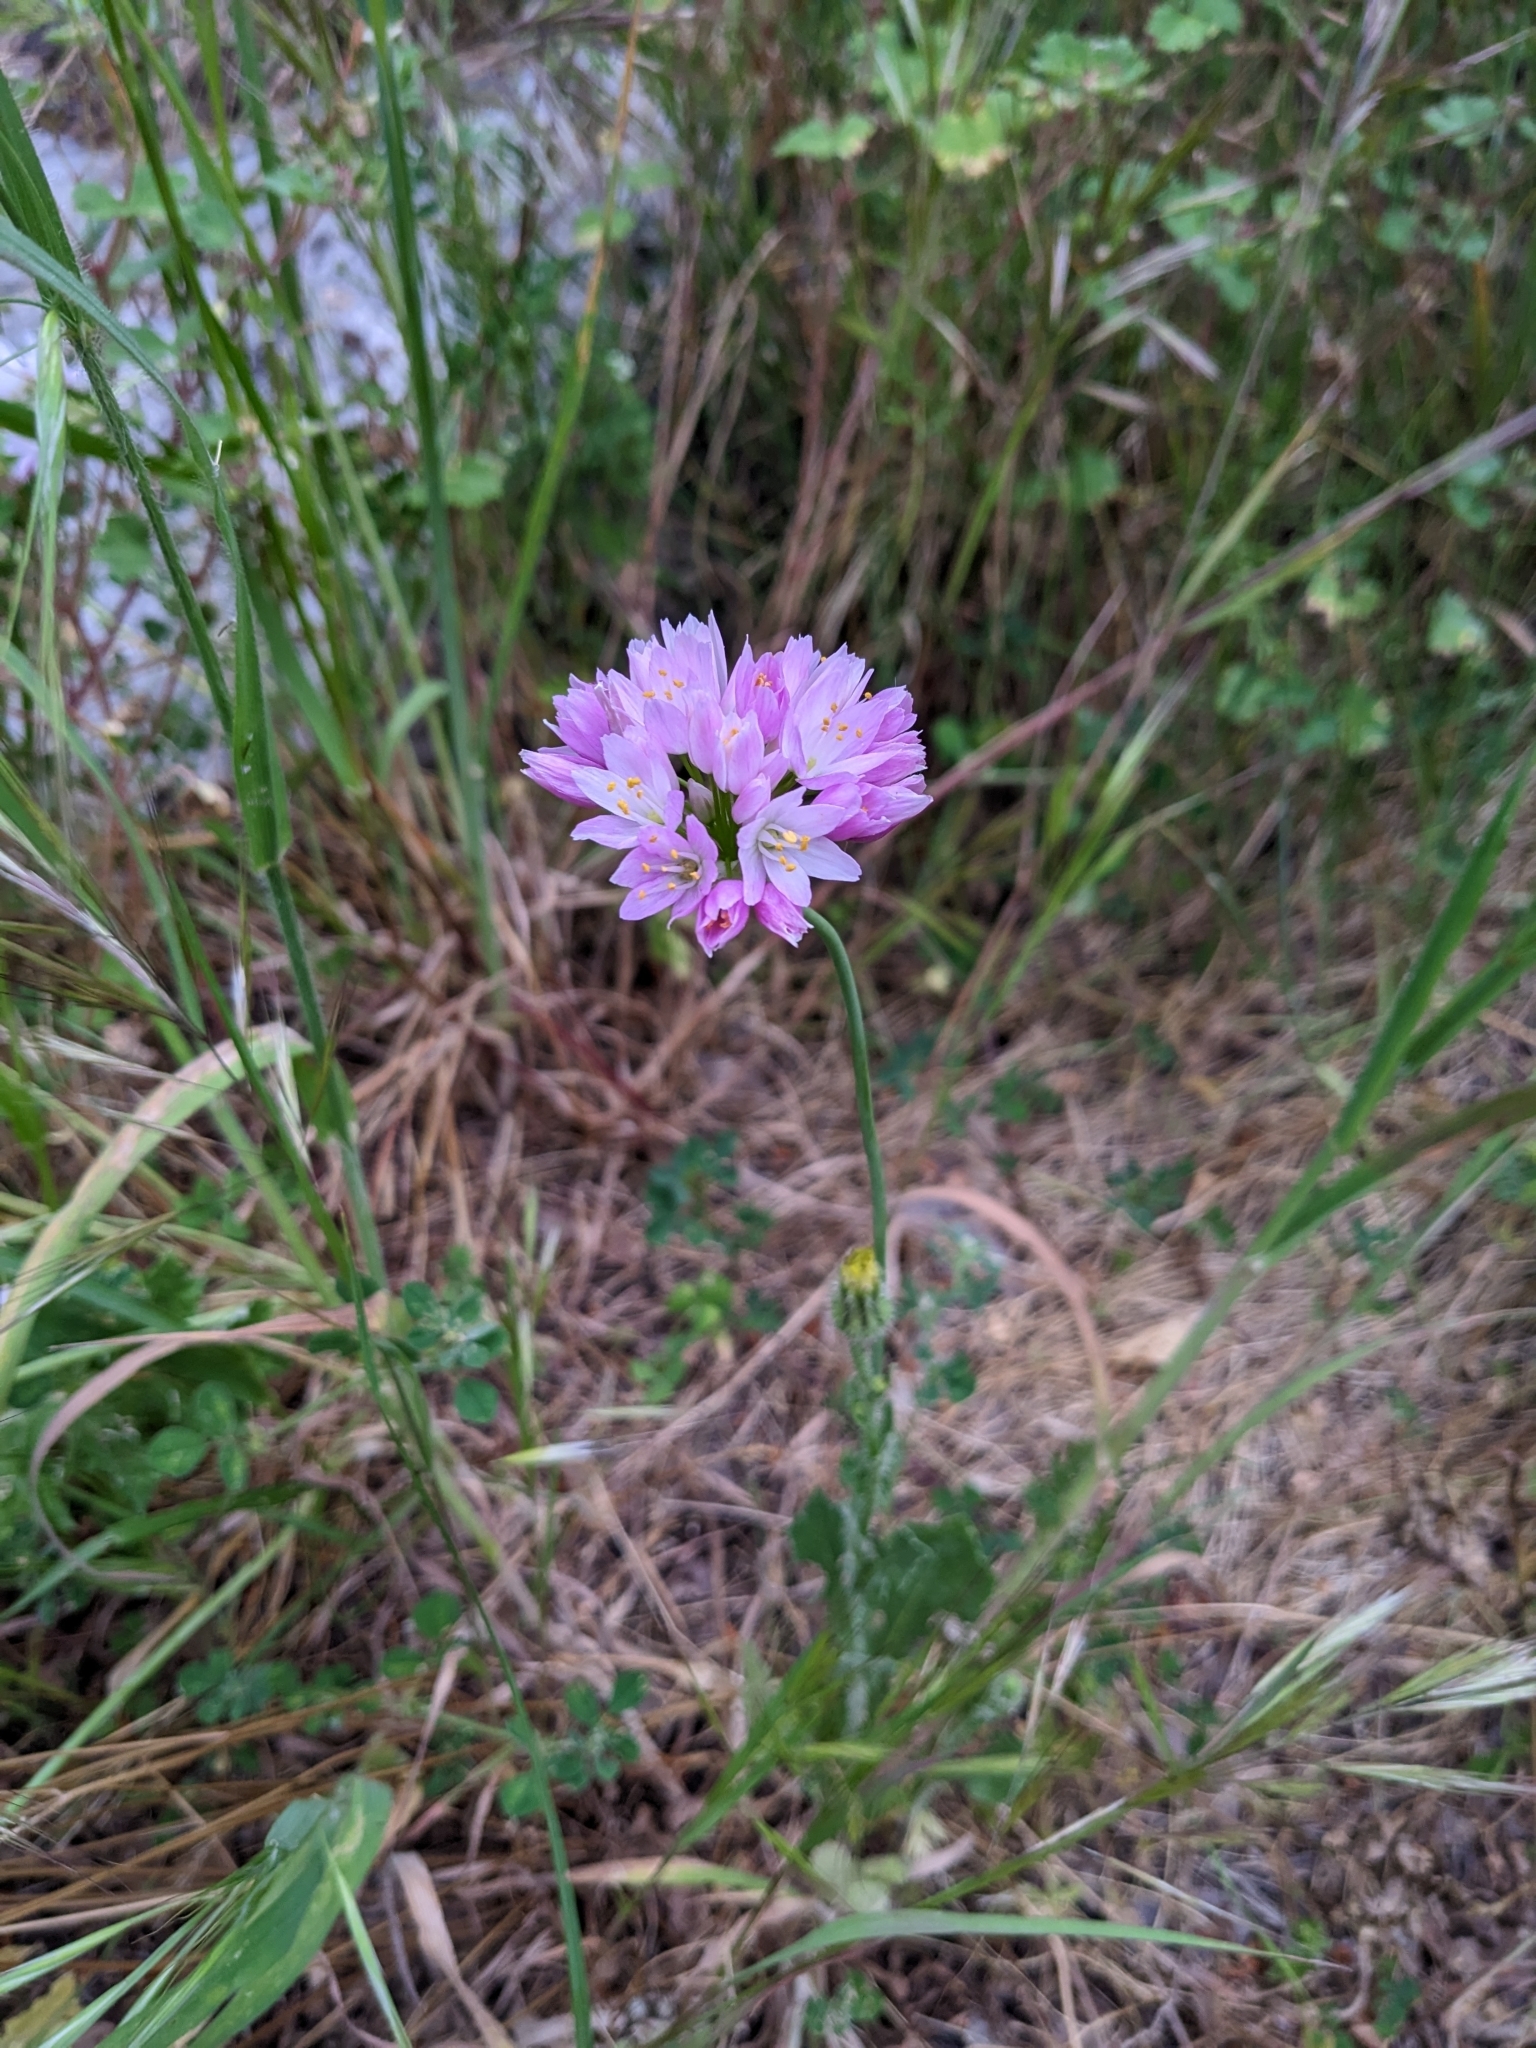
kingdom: Plantae
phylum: Tracheophyta
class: Liliopsida
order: Asparagales
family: Amaryllidaceae
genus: Allium
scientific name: Allium roseum
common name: Rosy garlic
